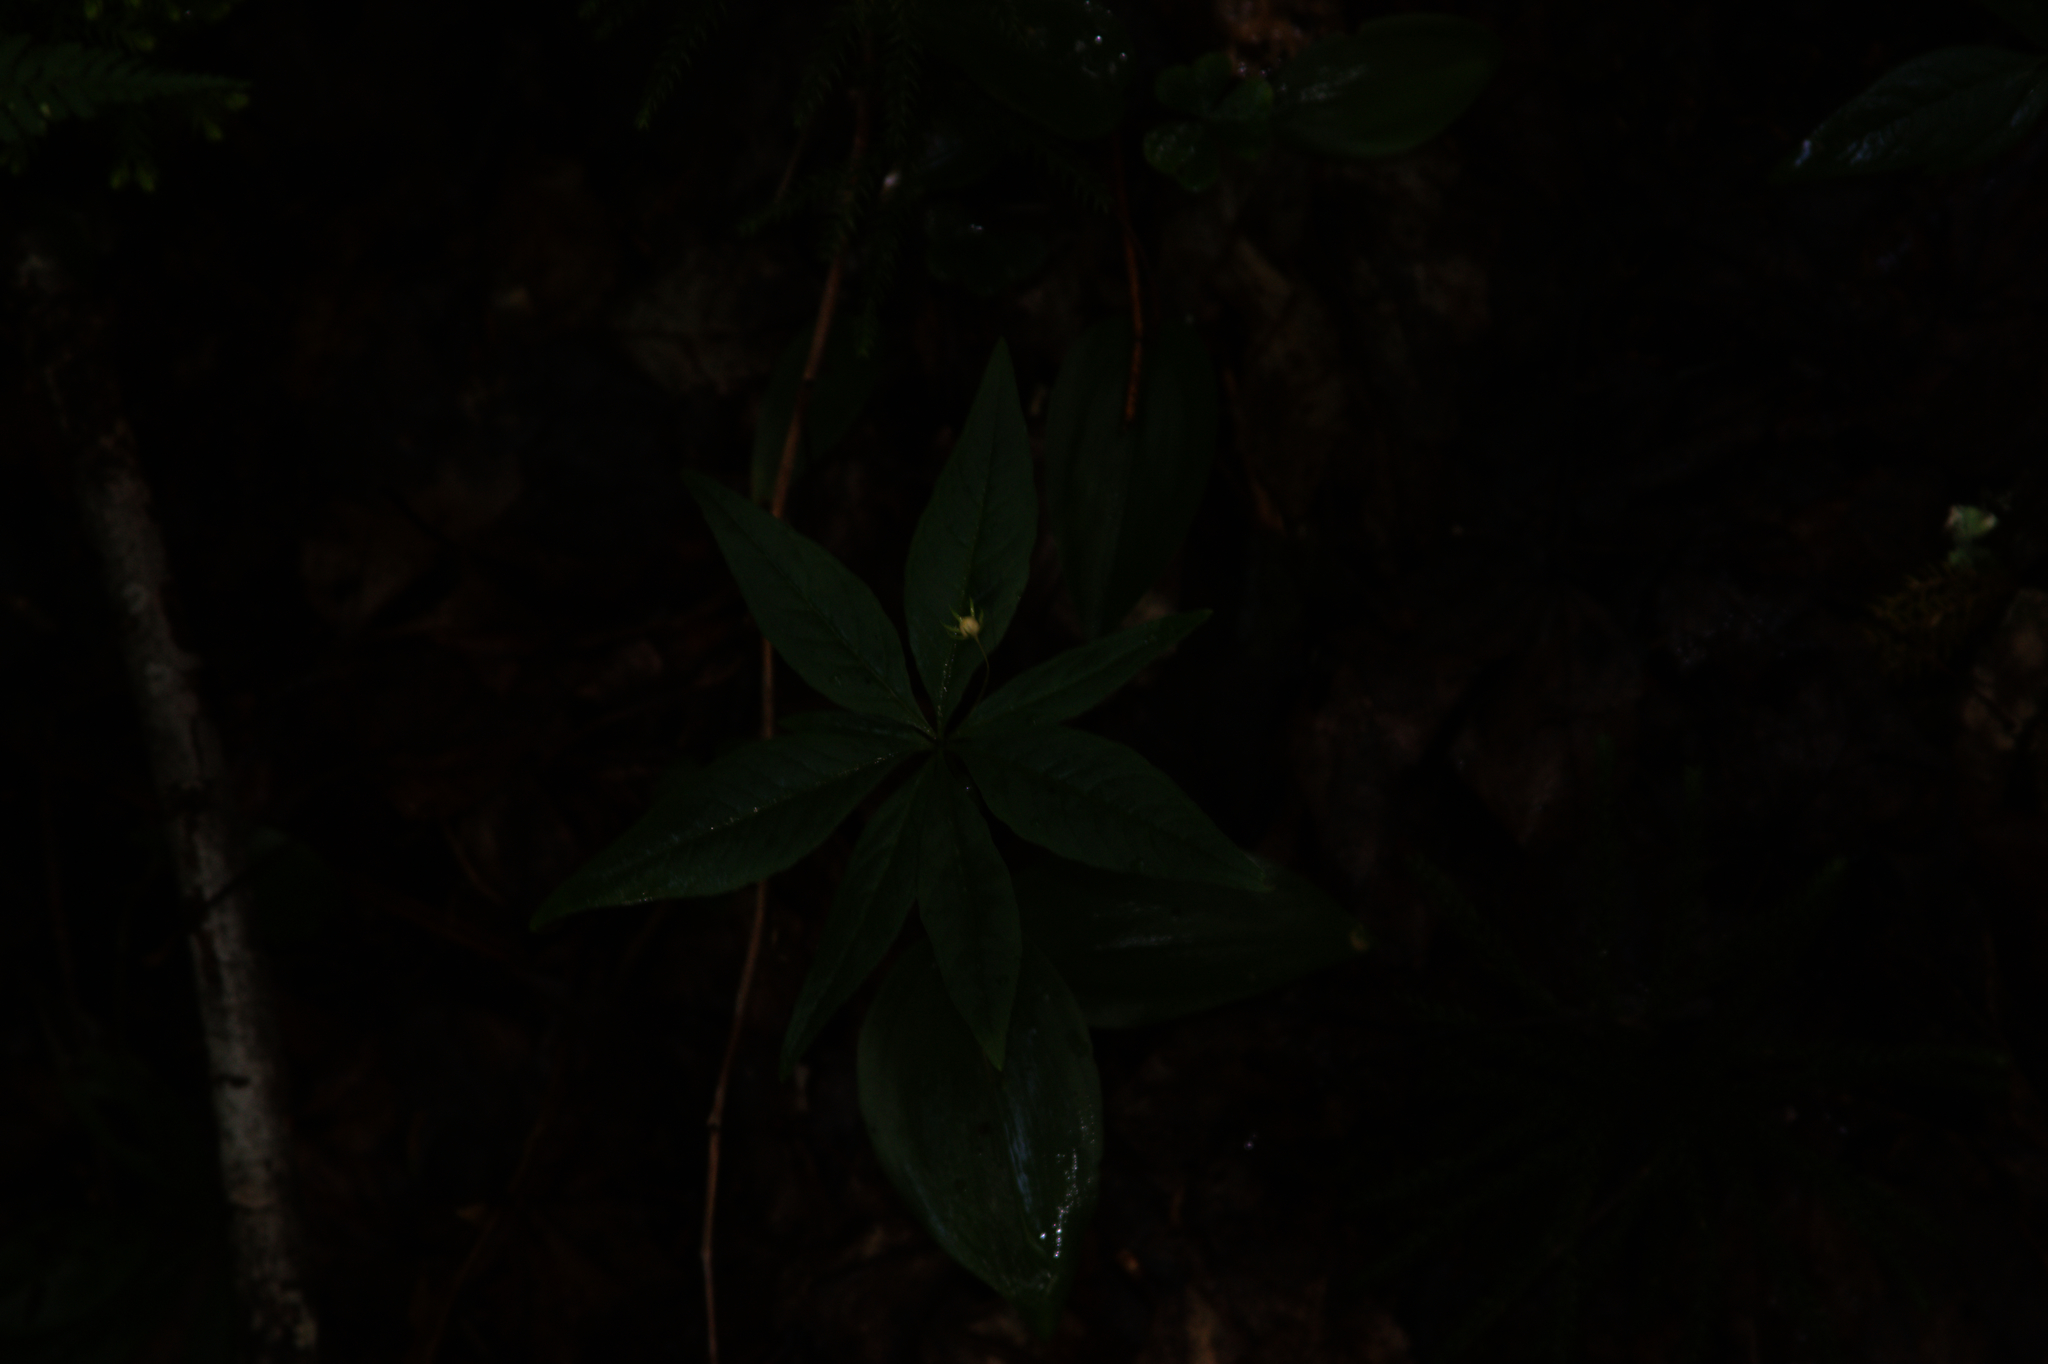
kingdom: Plantae
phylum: Tracheophyta
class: Magnoliopsida
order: Ericales
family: Primulaceae
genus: Lysimachia
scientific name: Lysimachia borealis
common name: American starflower
